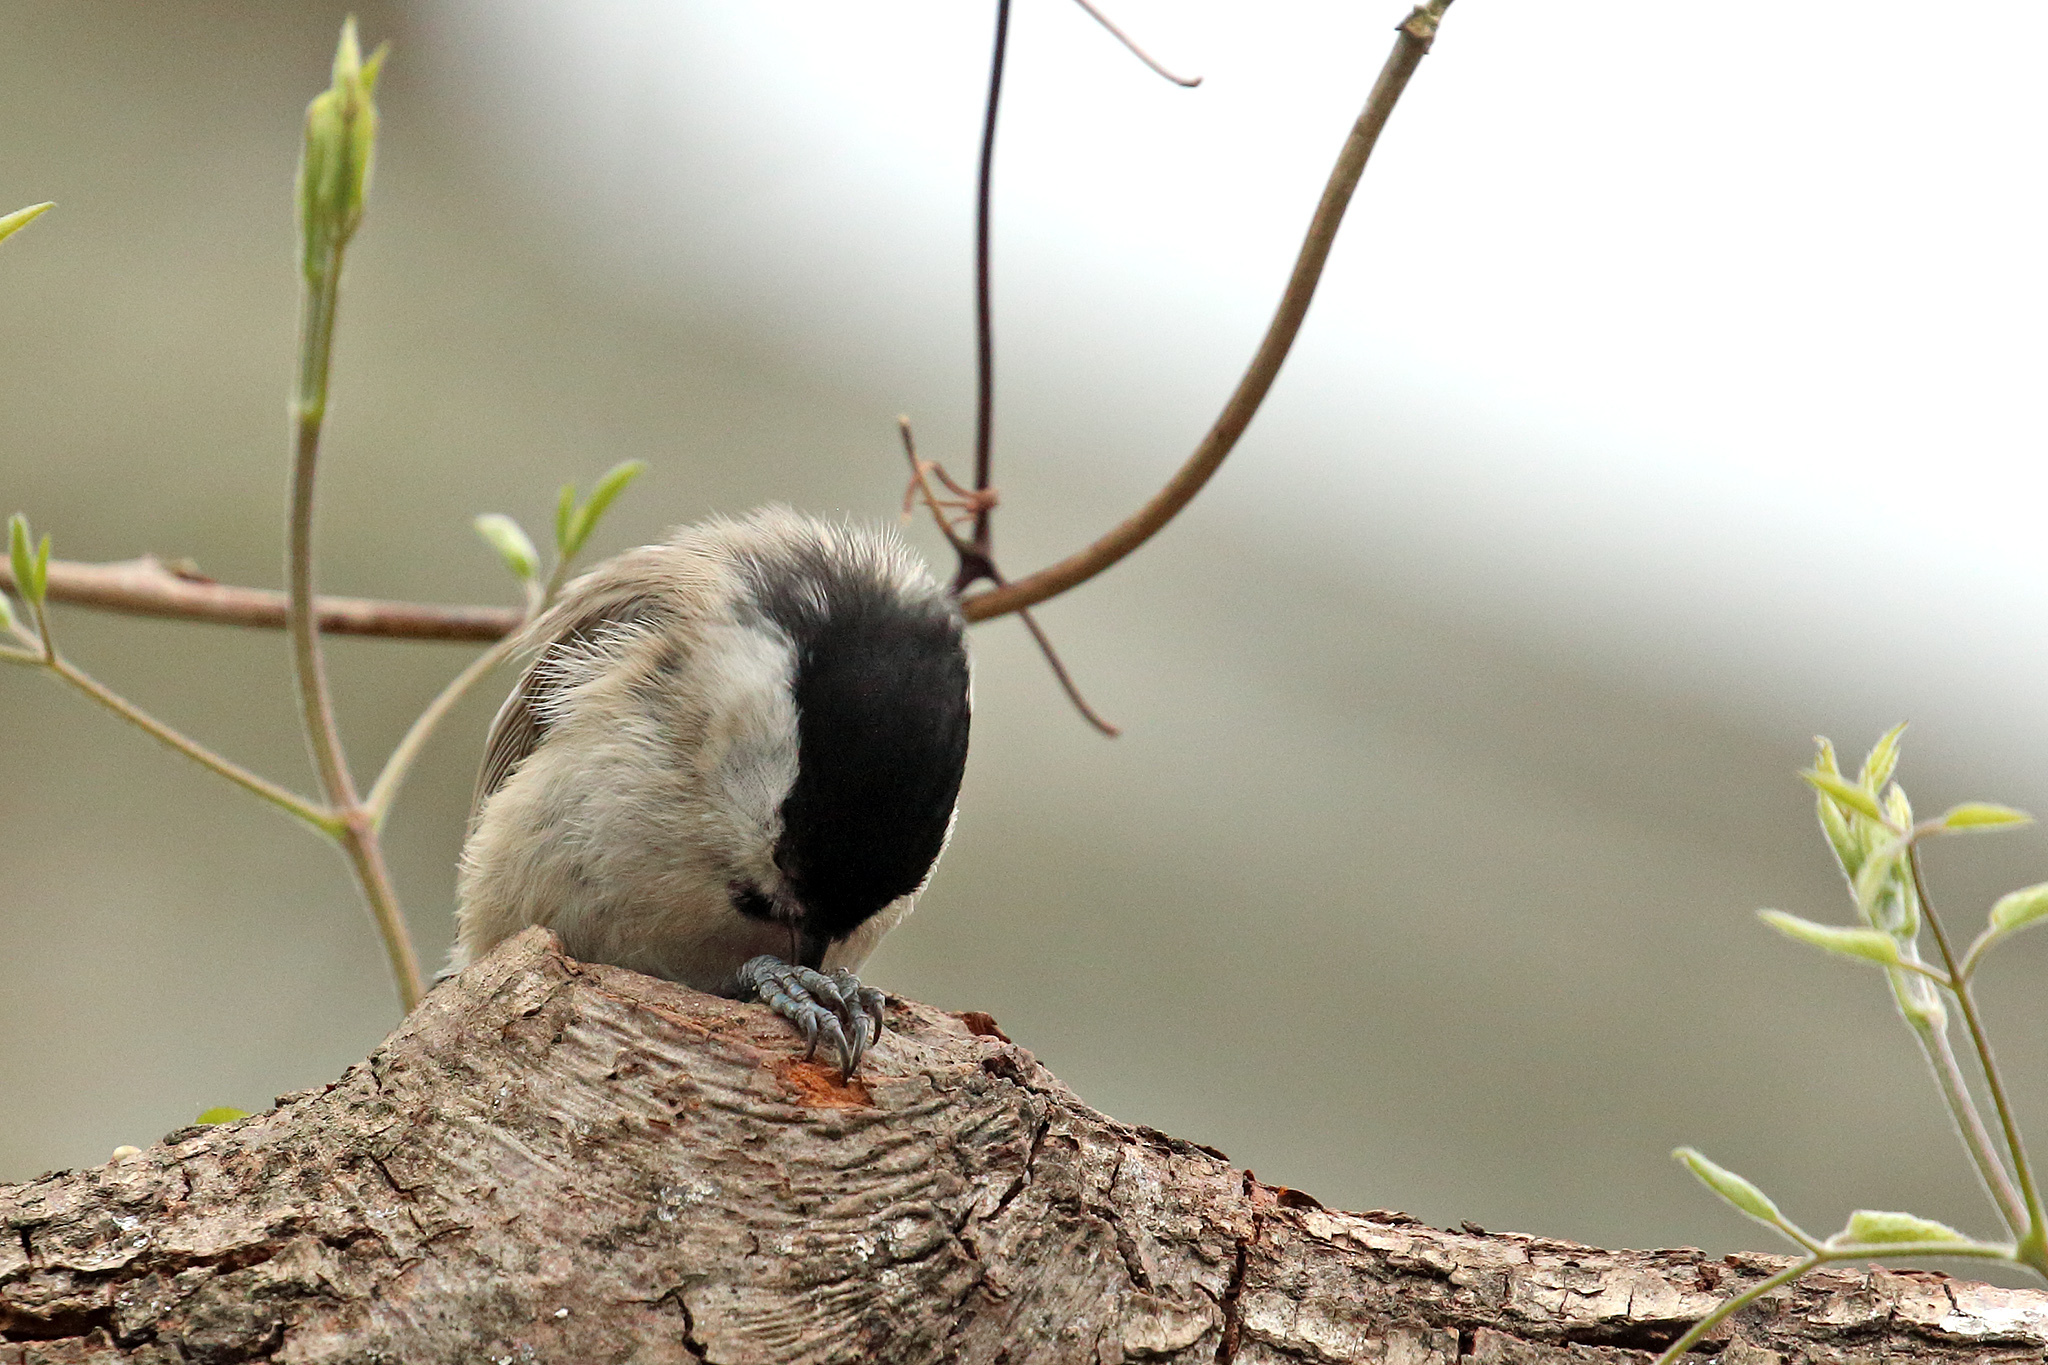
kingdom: Animalia
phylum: Chordata
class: Aves
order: Passeriformes
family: Paridae
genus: Poecile
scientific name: Poecile palustris
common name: Marsh tit
